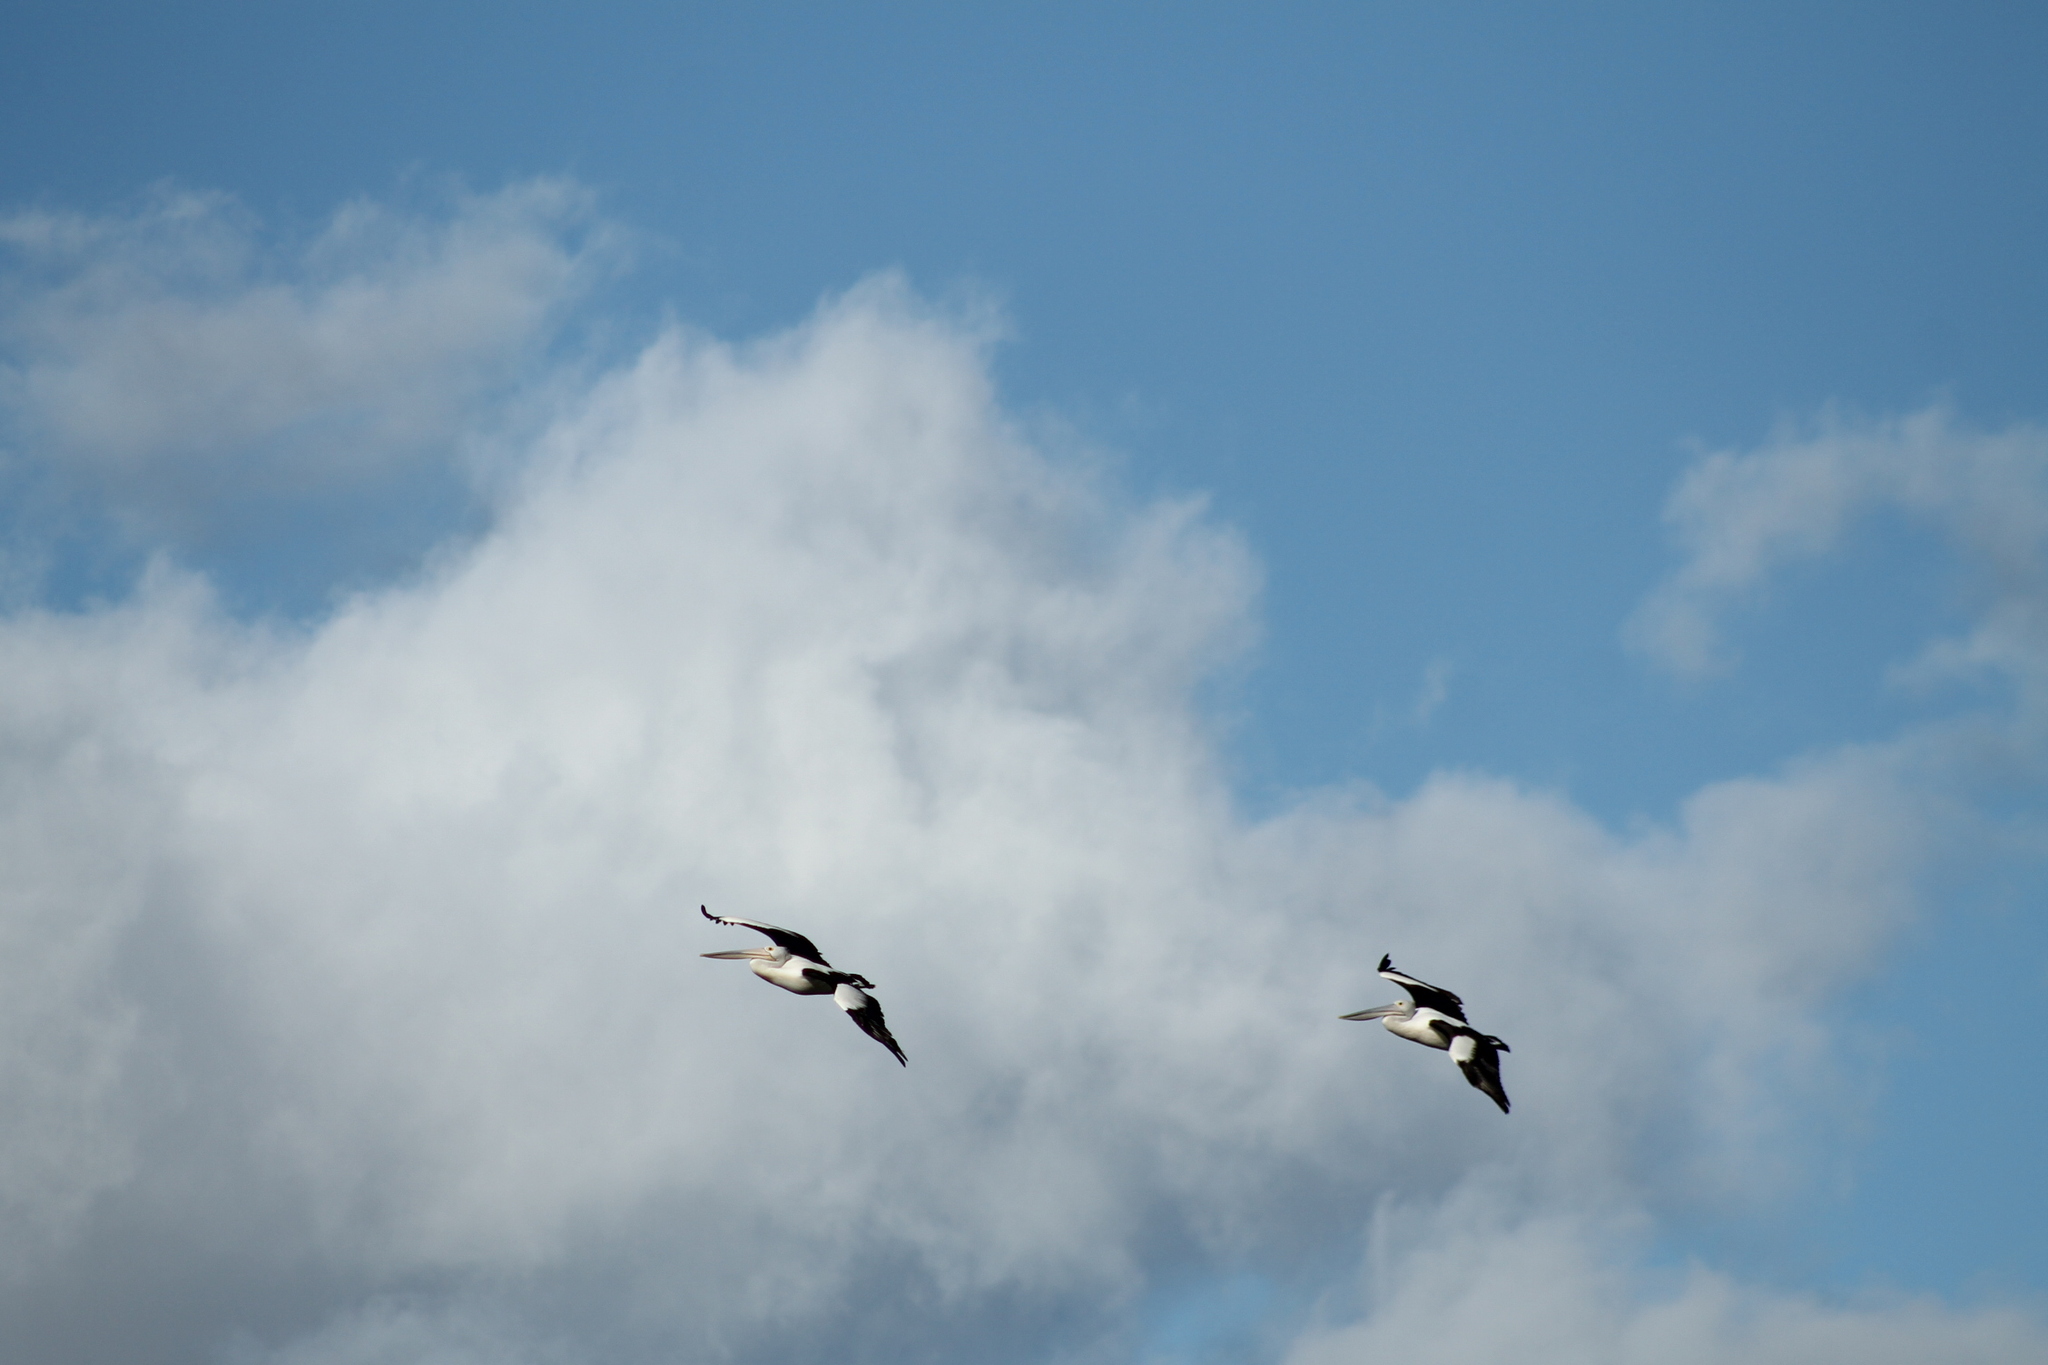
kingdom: Animalia
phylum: Chordata
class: Aves
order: Pelecaniformes
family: Pelecanidae
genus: Pelecanus
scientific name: Pelecanus conspicillatus
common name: Australian pelican
